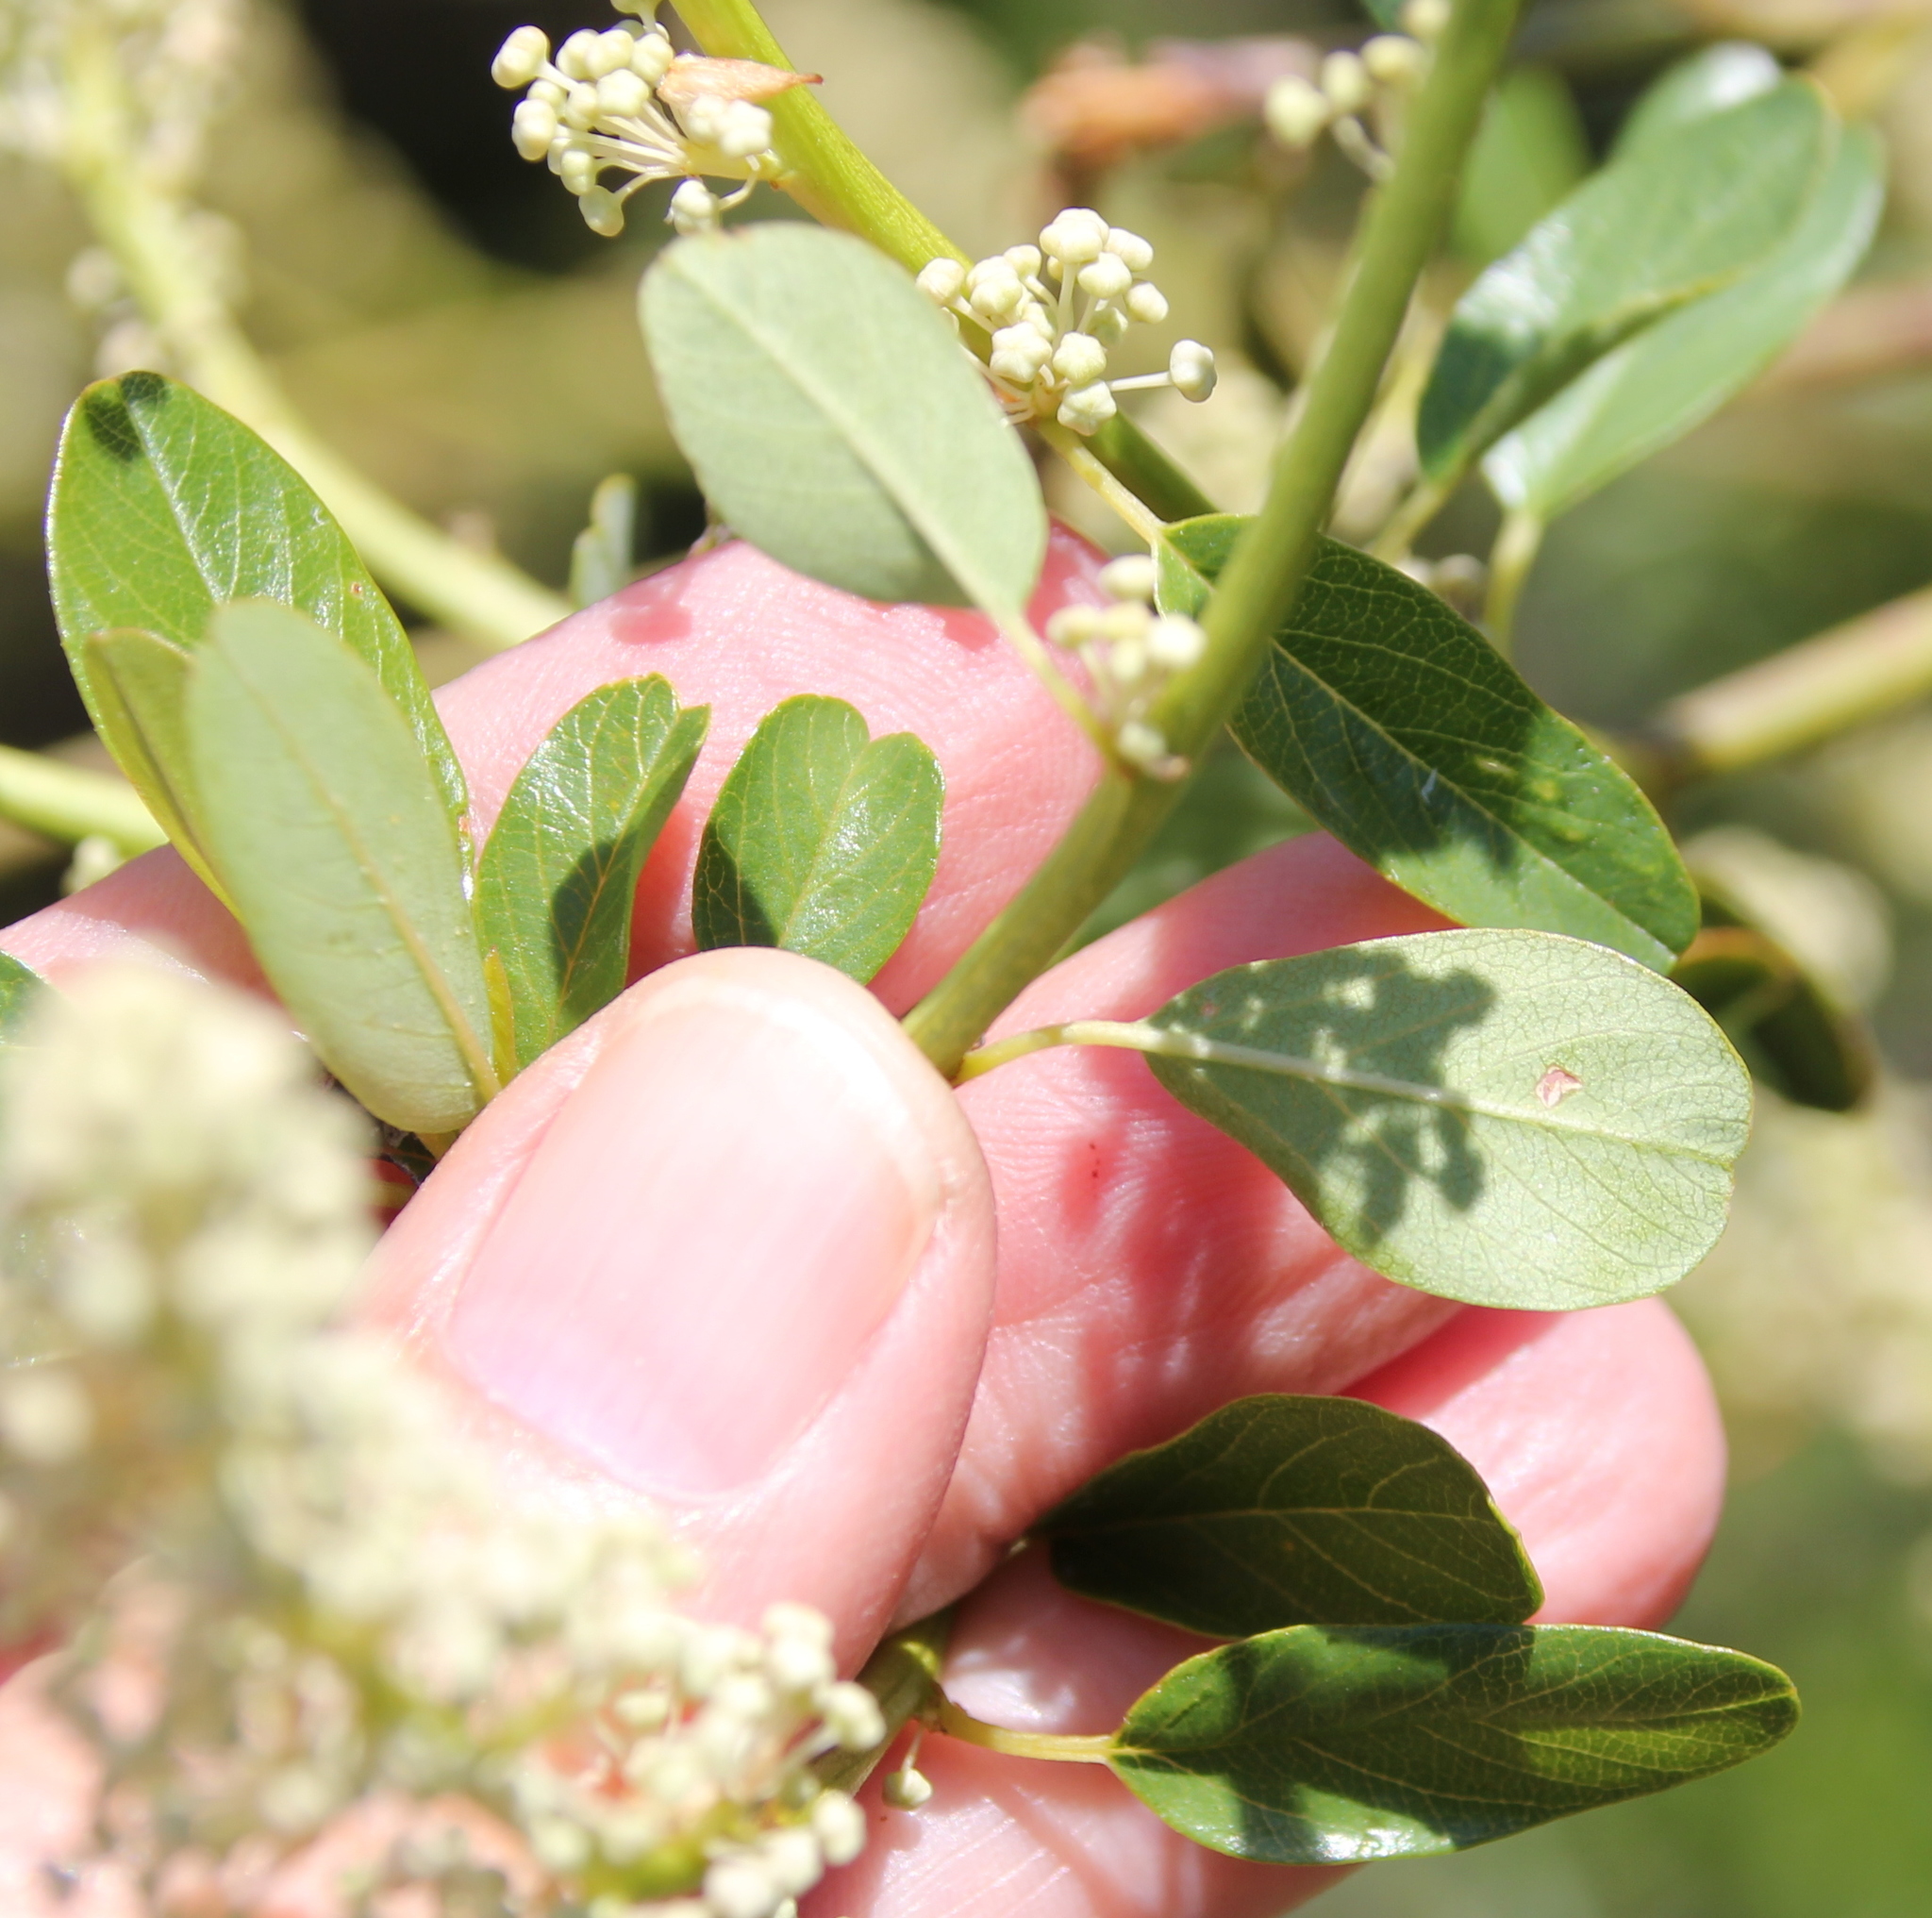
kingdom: Plantae
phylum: Tracheophyta
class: Magnoliopsida
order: Rosales
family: Rhamnaceae
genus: Ceanothus
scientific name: Ceanothus palmeri
